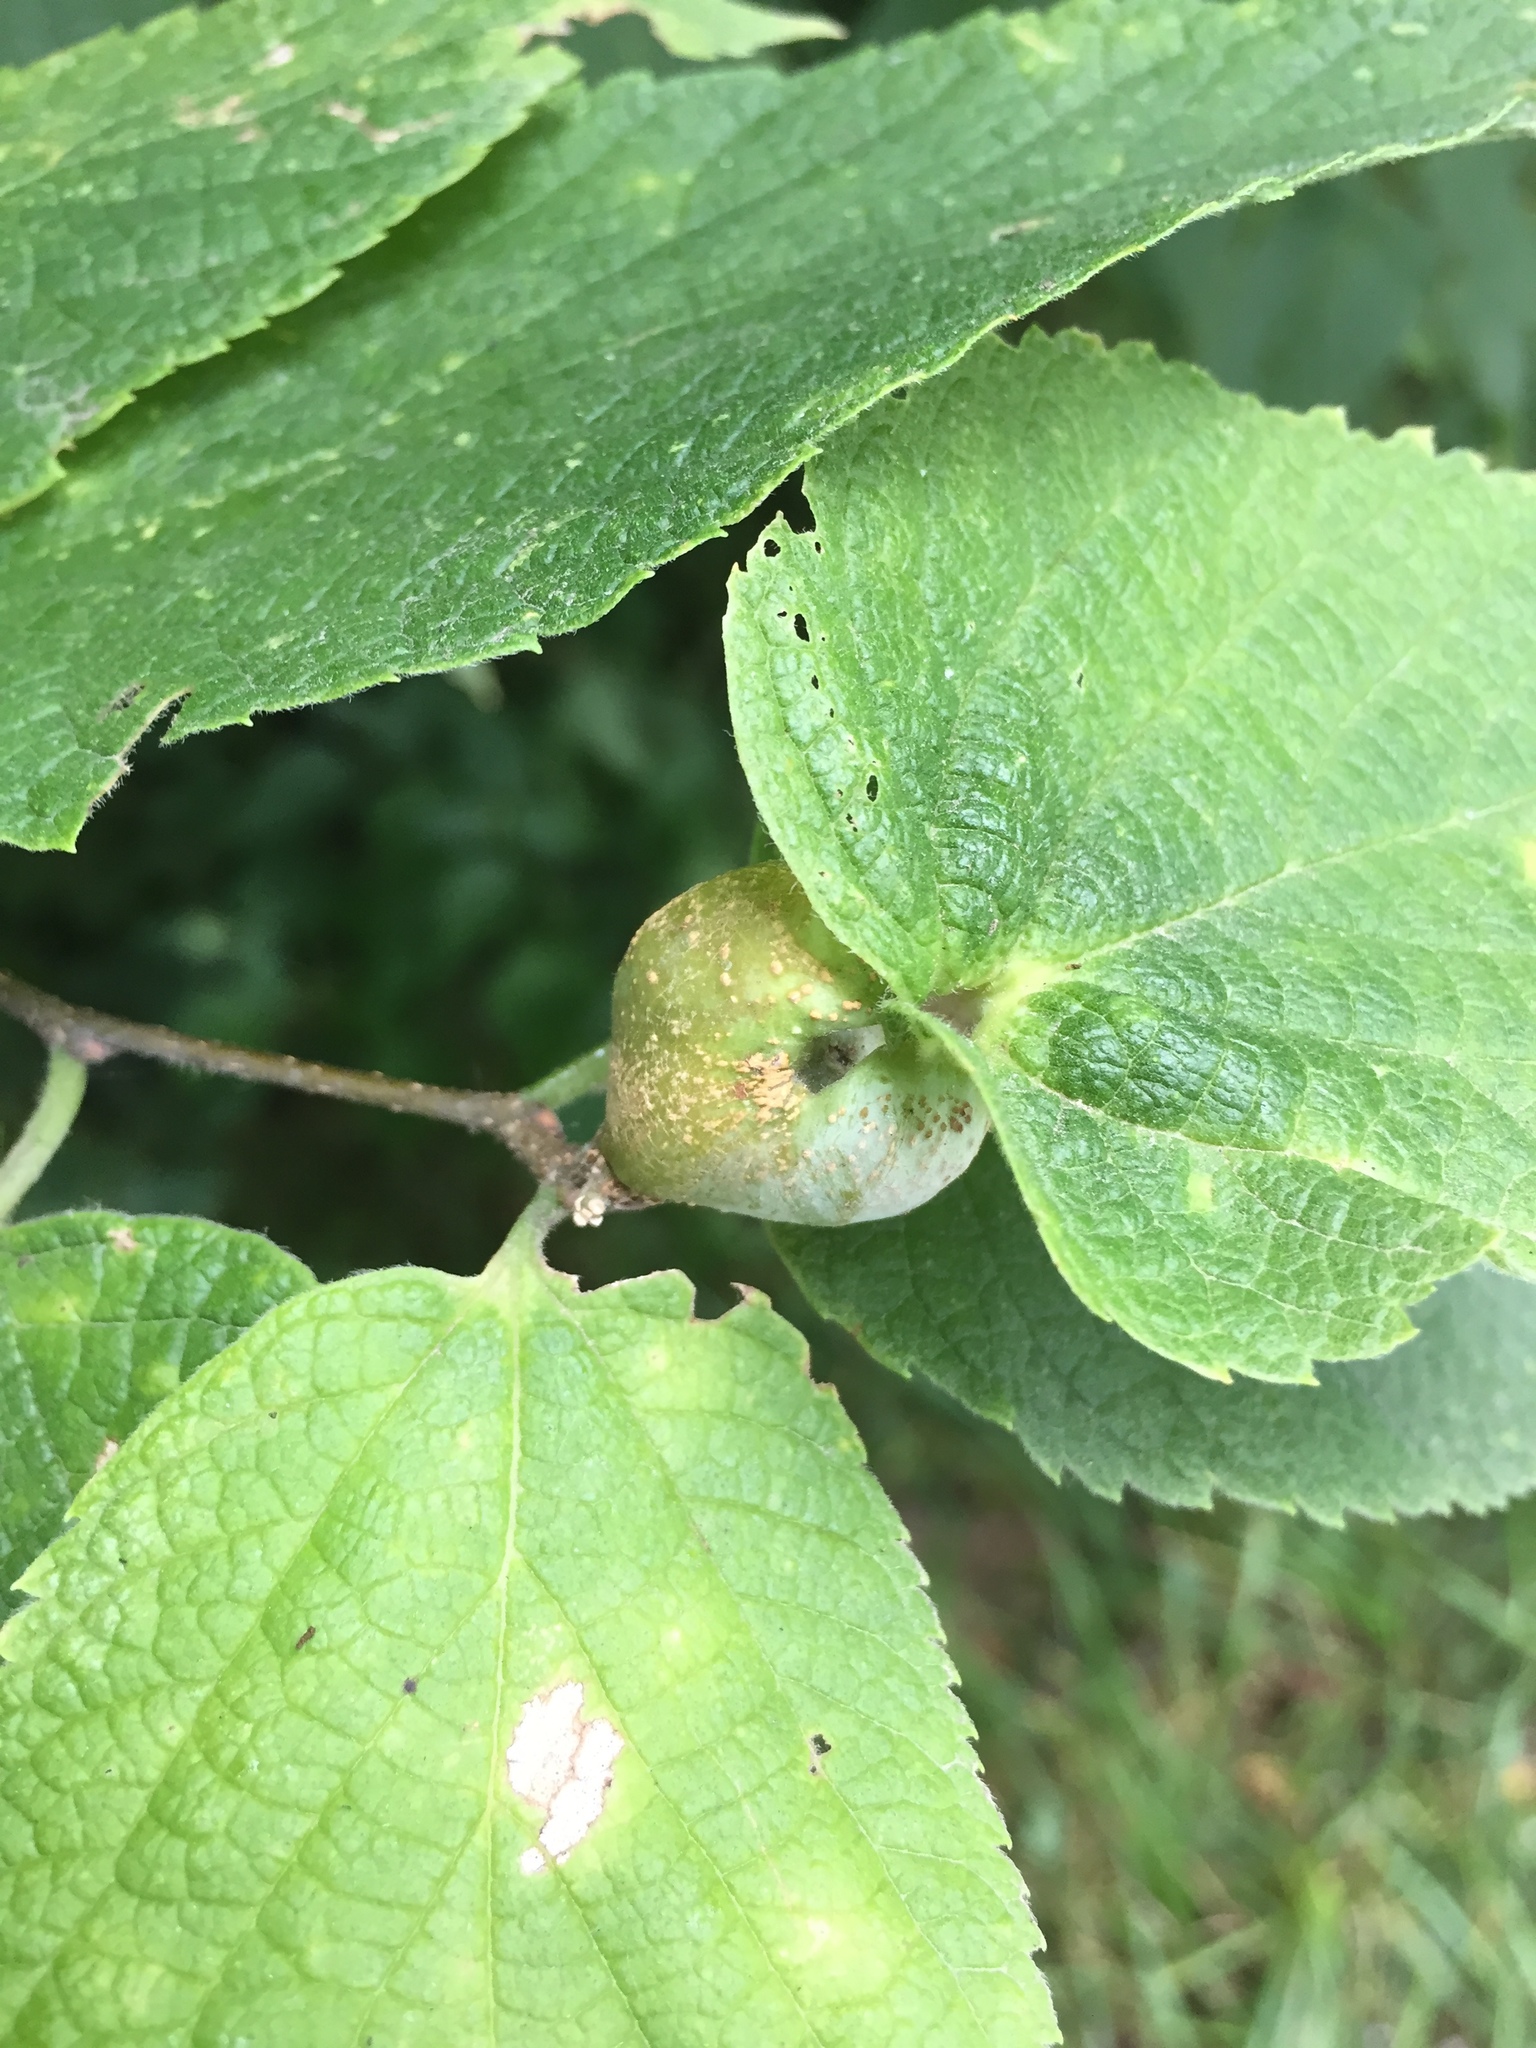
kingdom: Animalia
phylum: Arthropoda
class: Insecta
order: Hemiptera
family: Aphalaridae
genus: Pachypsylla
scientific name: Pachypsylla venusta
